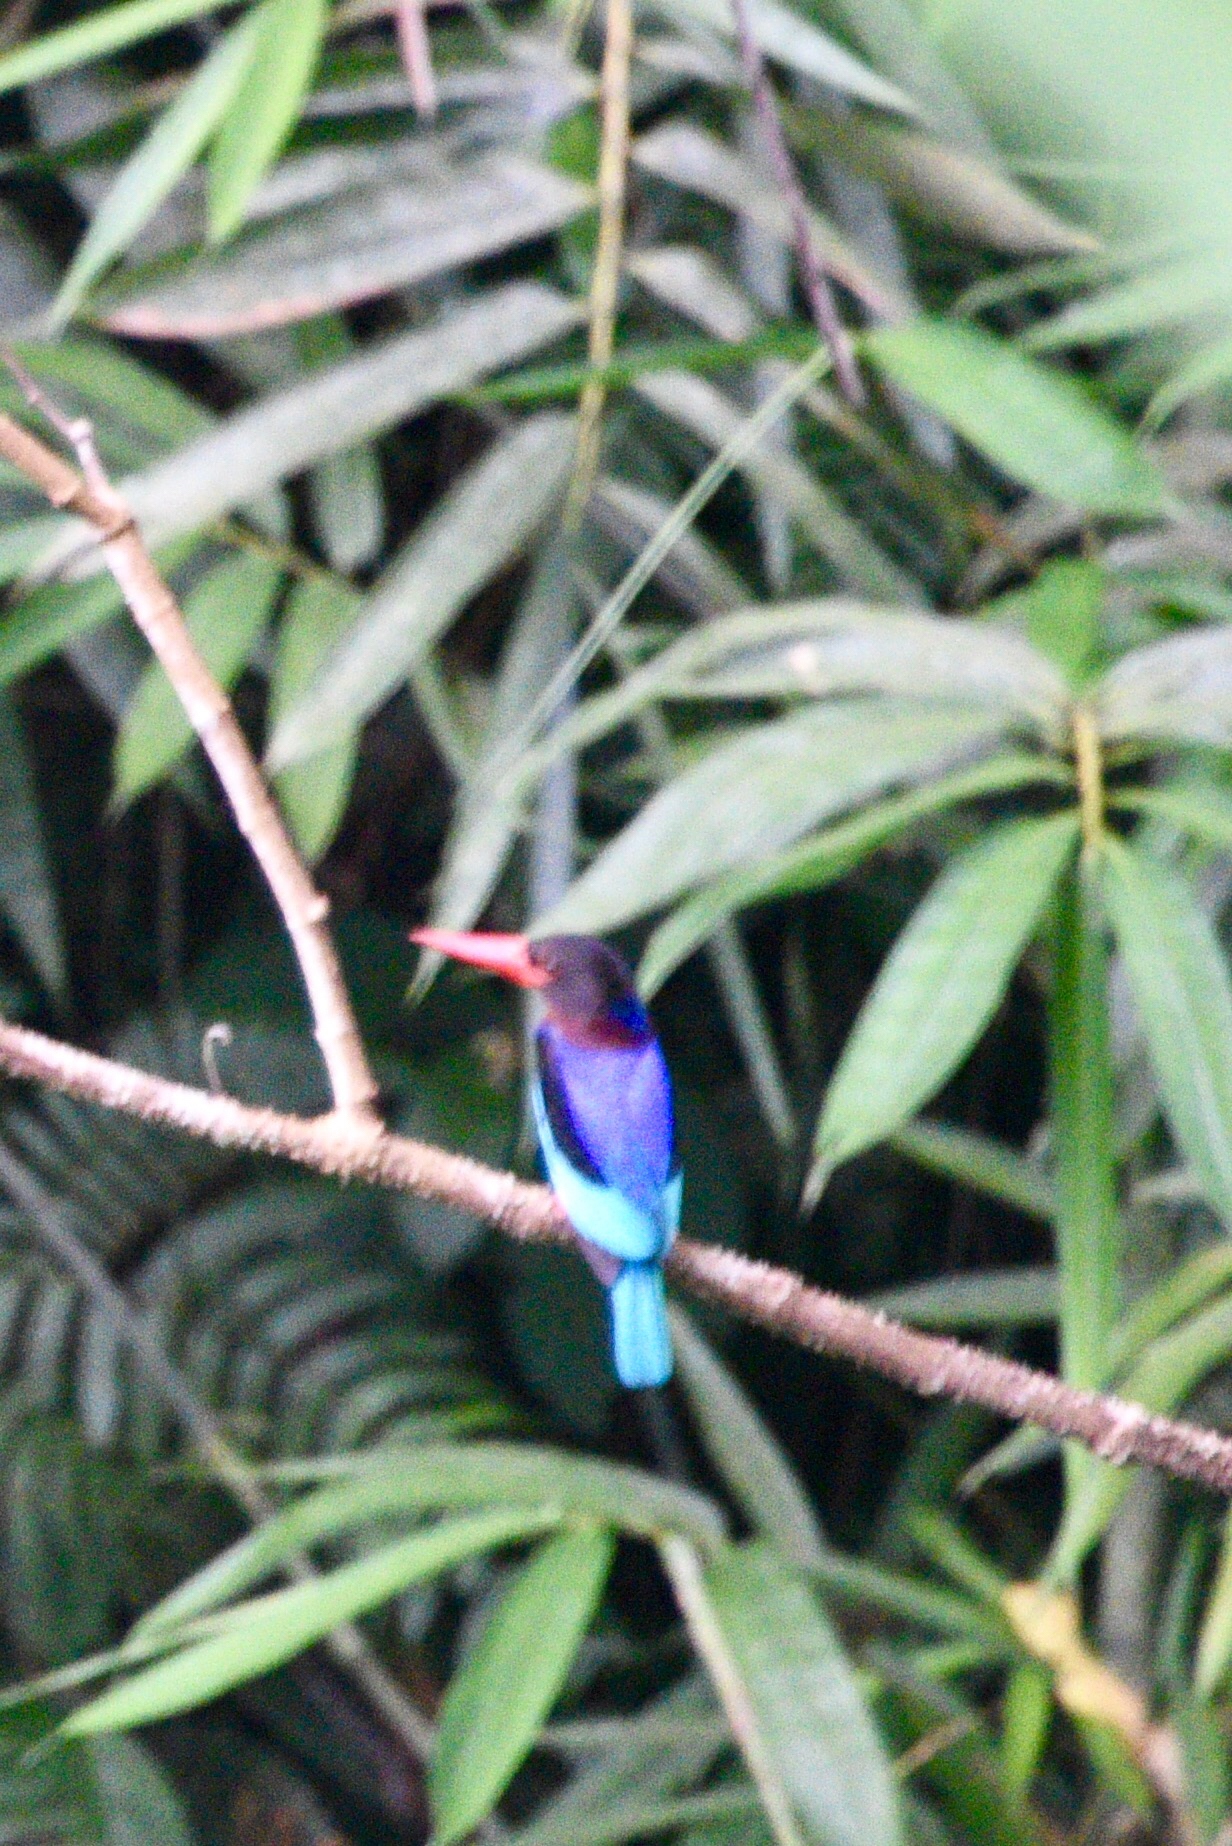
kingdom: Animalia
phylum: Chordata
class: Aves
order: Coraciiformes
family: Alcedinidae
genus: Halcyon
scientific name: Halcyon cyanoventris
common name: Javan kingfisher
